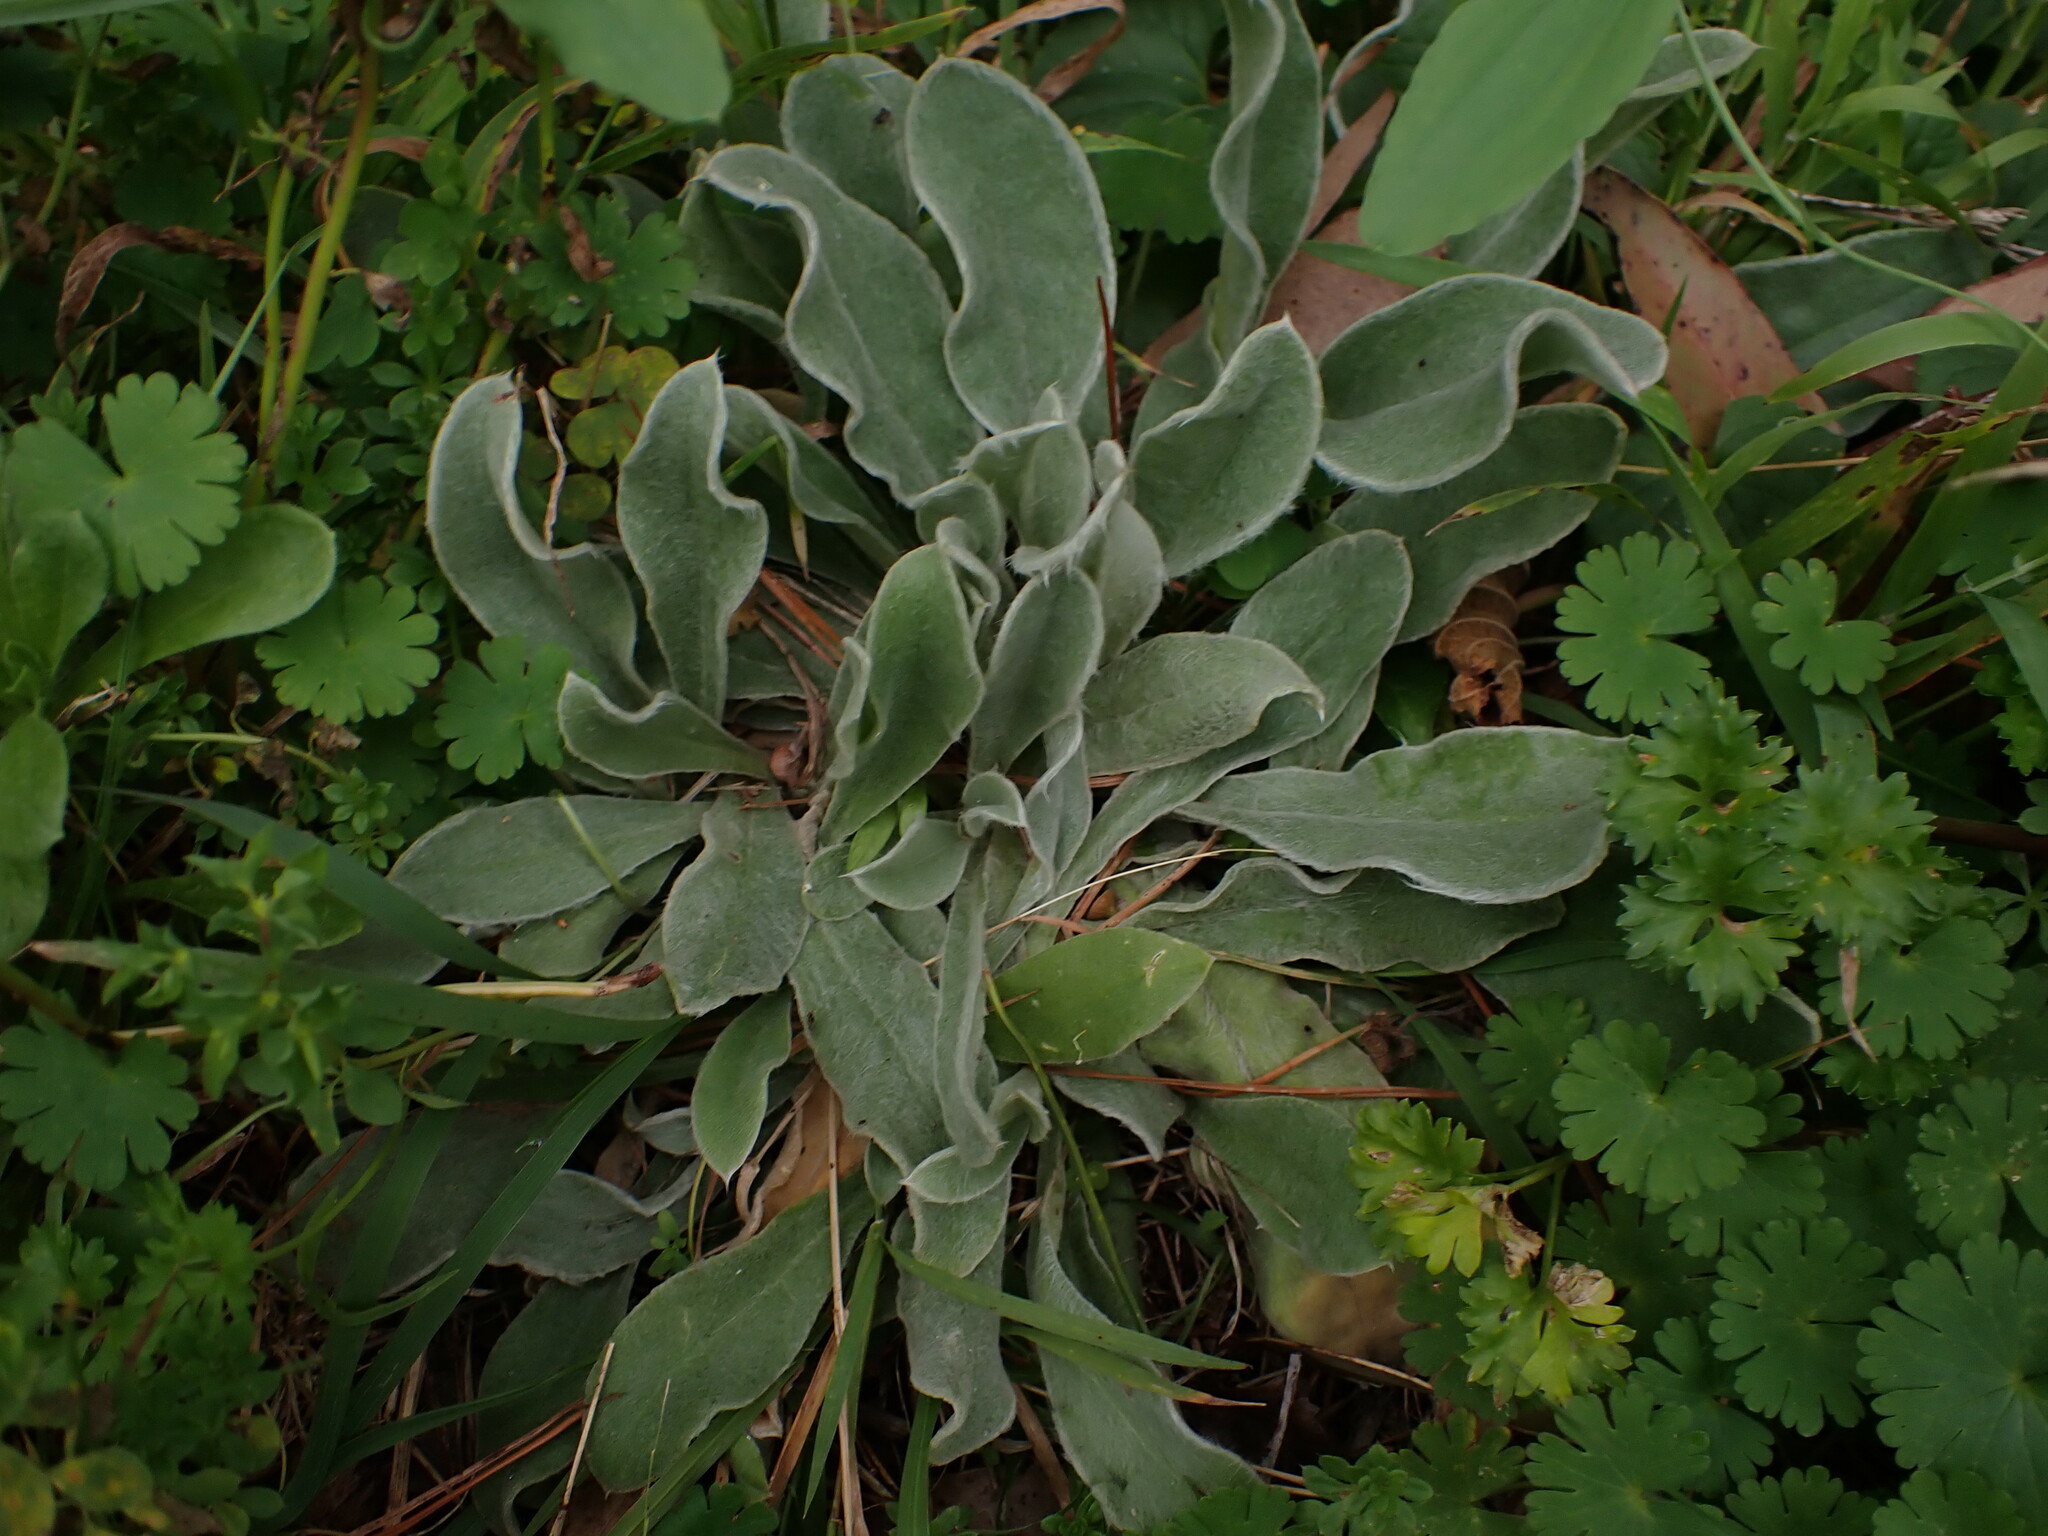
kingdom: Plantae
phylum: Tracheophyta
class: Magnoliopsida
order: Caryophyllales
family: Caryophyllaceae
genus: Silene
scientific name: Silene coronaria
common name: Rose campion
